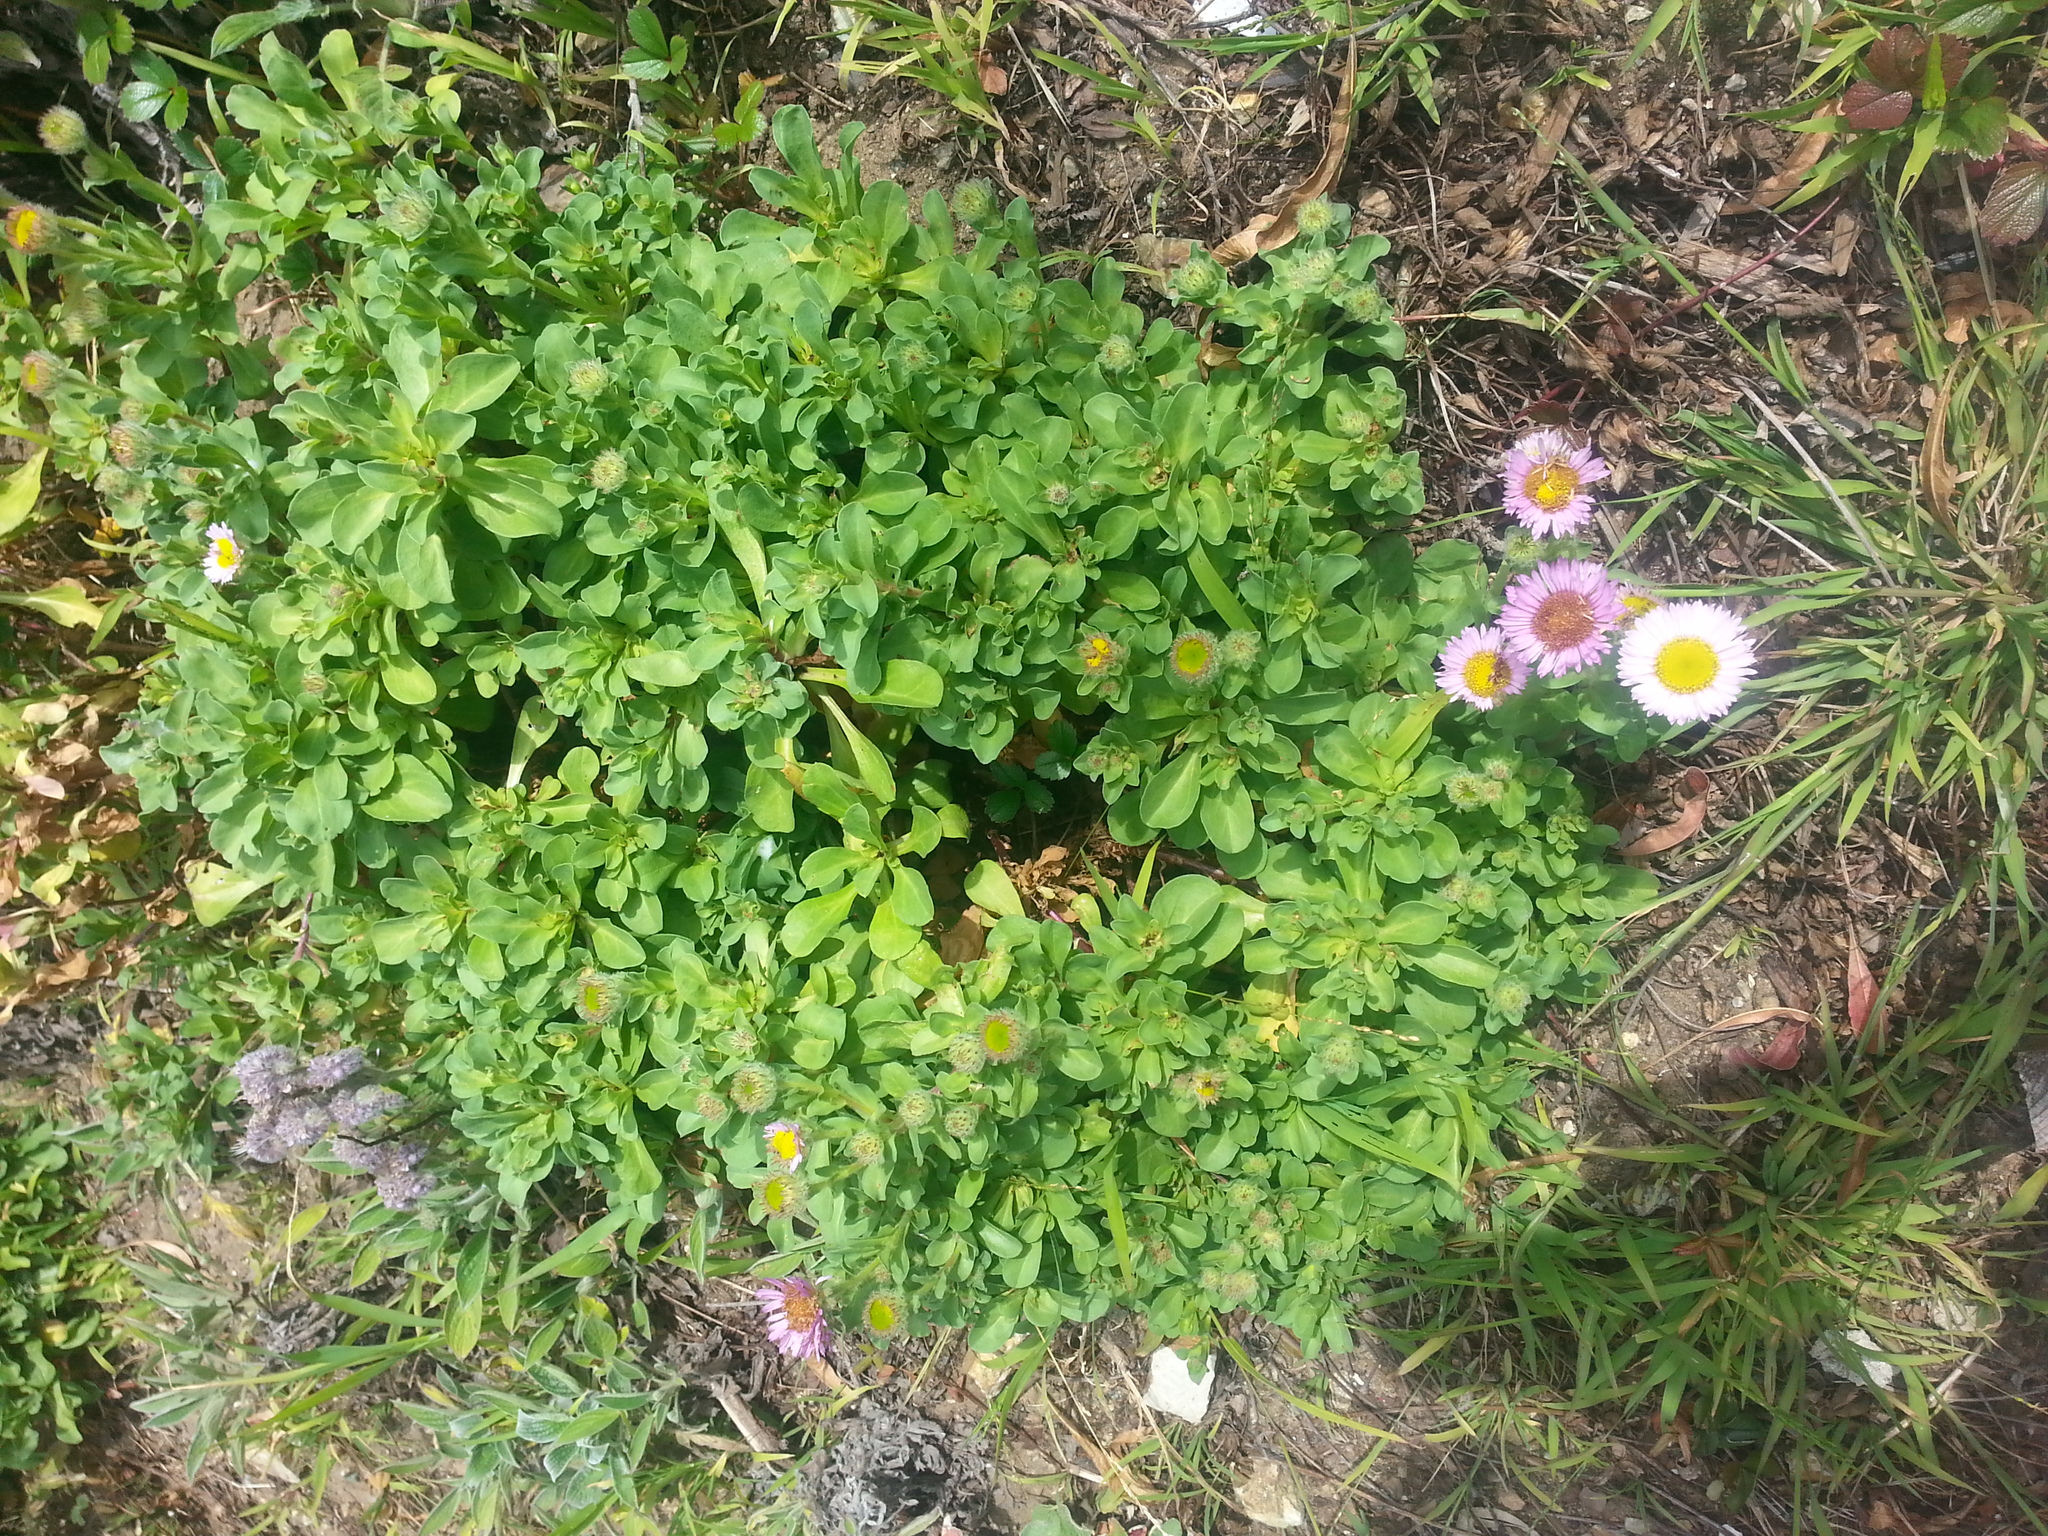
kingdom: Plantae
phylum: Tracheophyta
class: Magnoliopsida
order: Asterales
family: Asteraceae
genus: Erigeron
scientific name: Erigeron glaucus
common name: Seaside daisy
